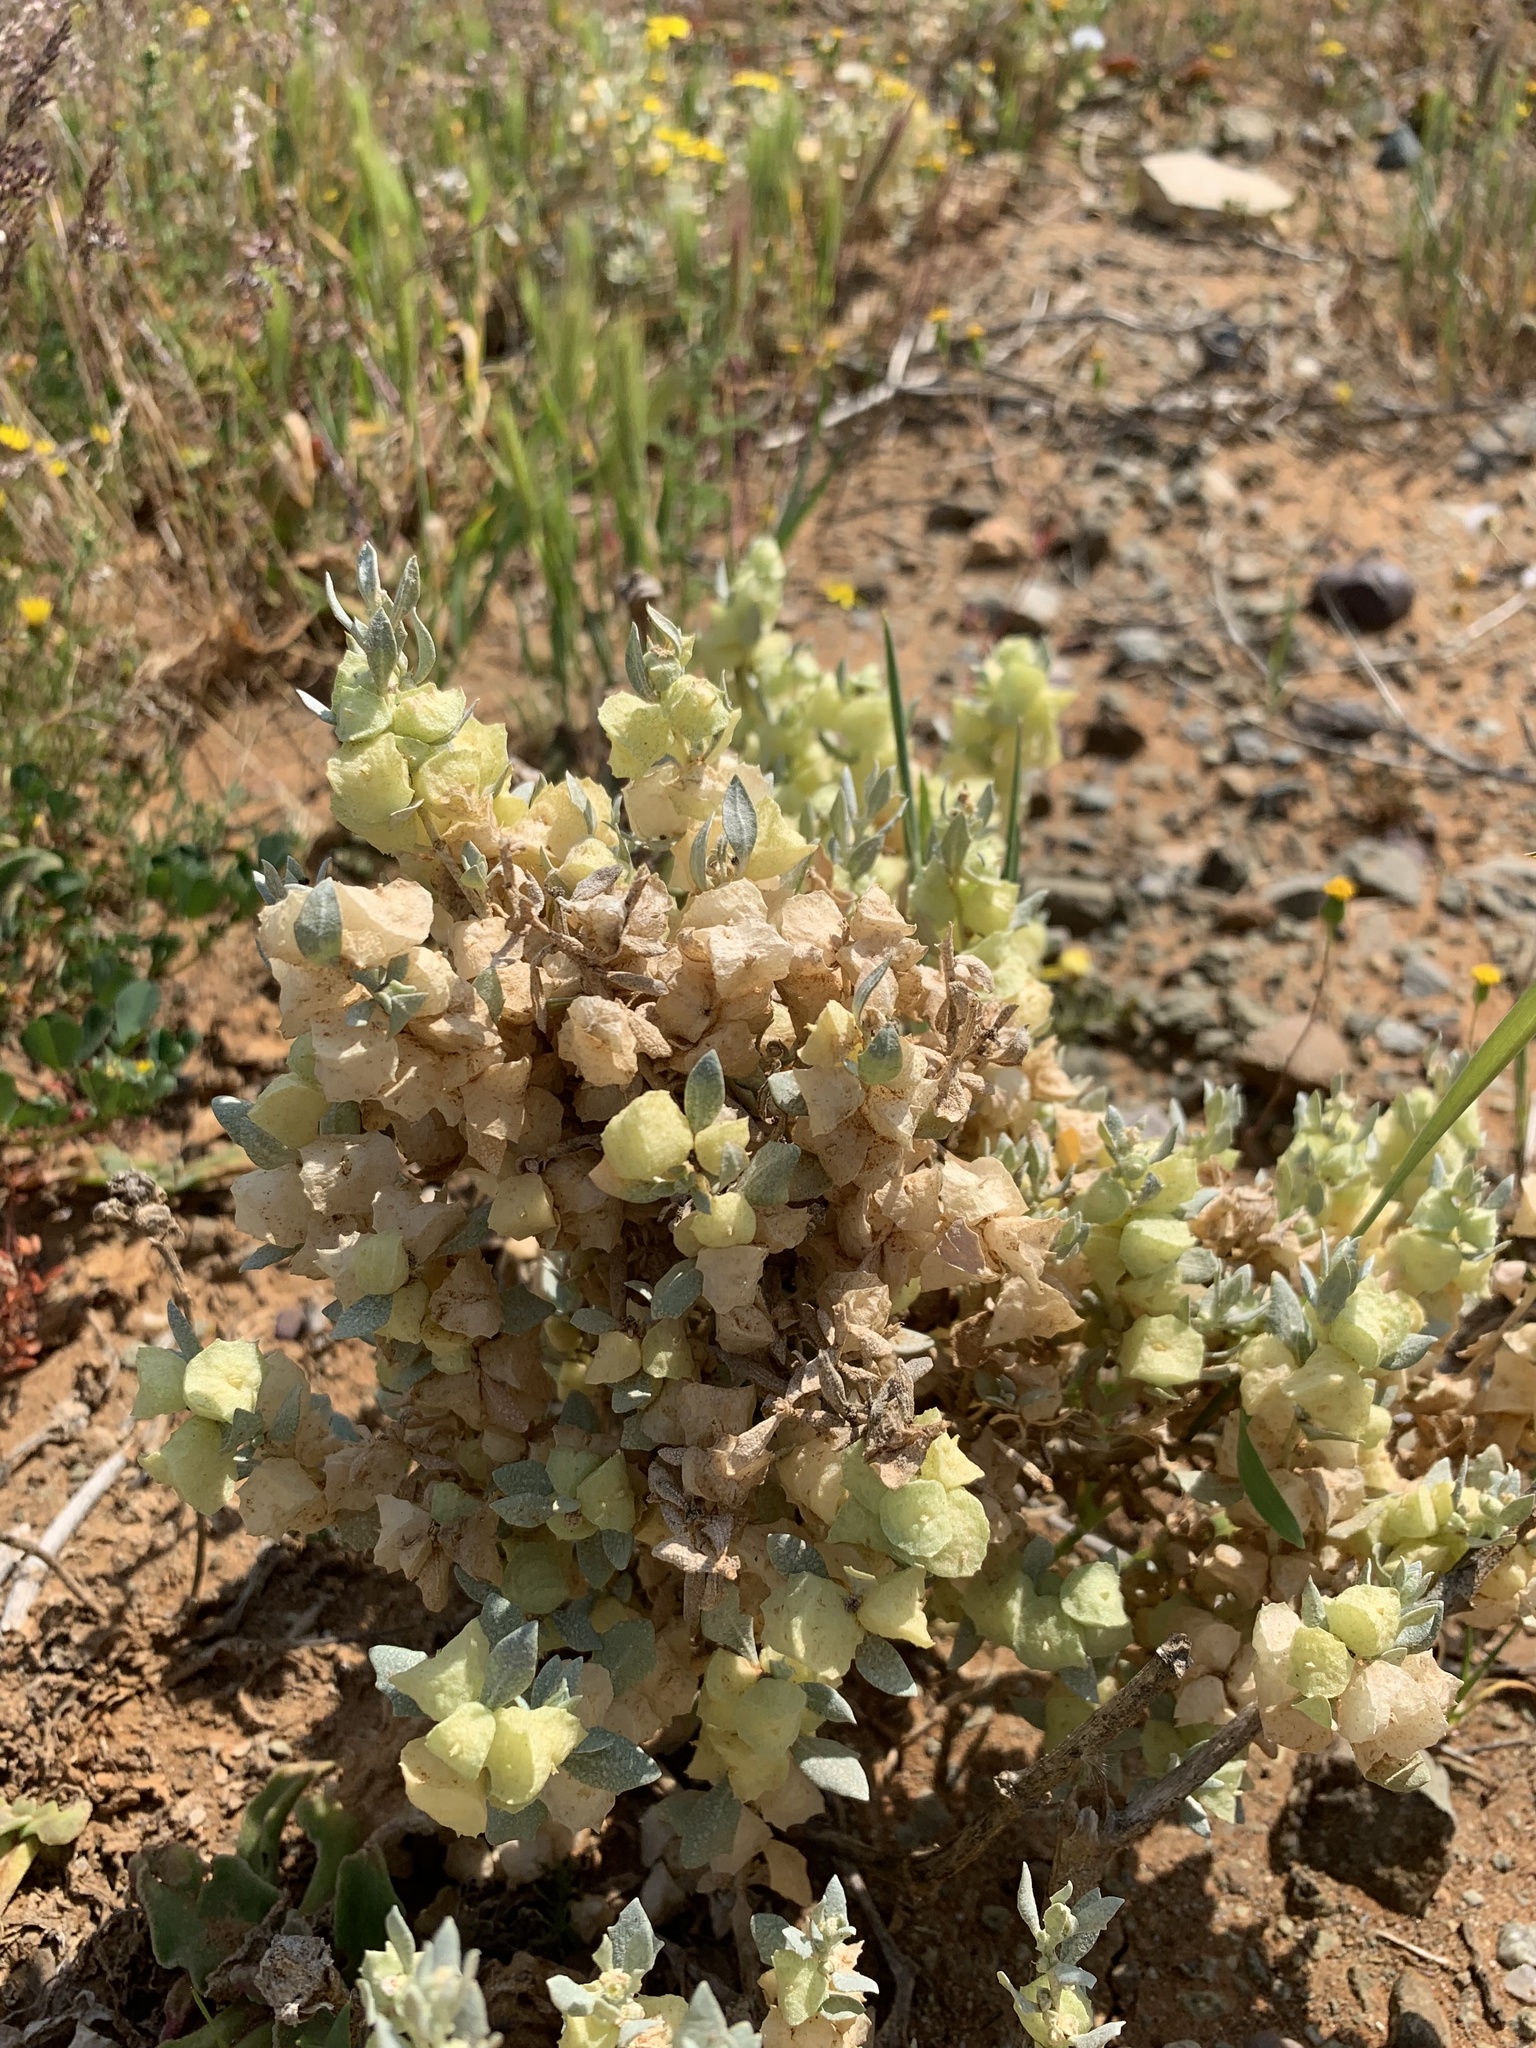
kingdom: Plantae
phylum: Tracheophyta
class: Magnoliopsida
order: Caryophyllales
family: Amaranthaceae
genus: Atriplex
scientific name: Atriplex lindleyi
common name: Lindley's saltbush
